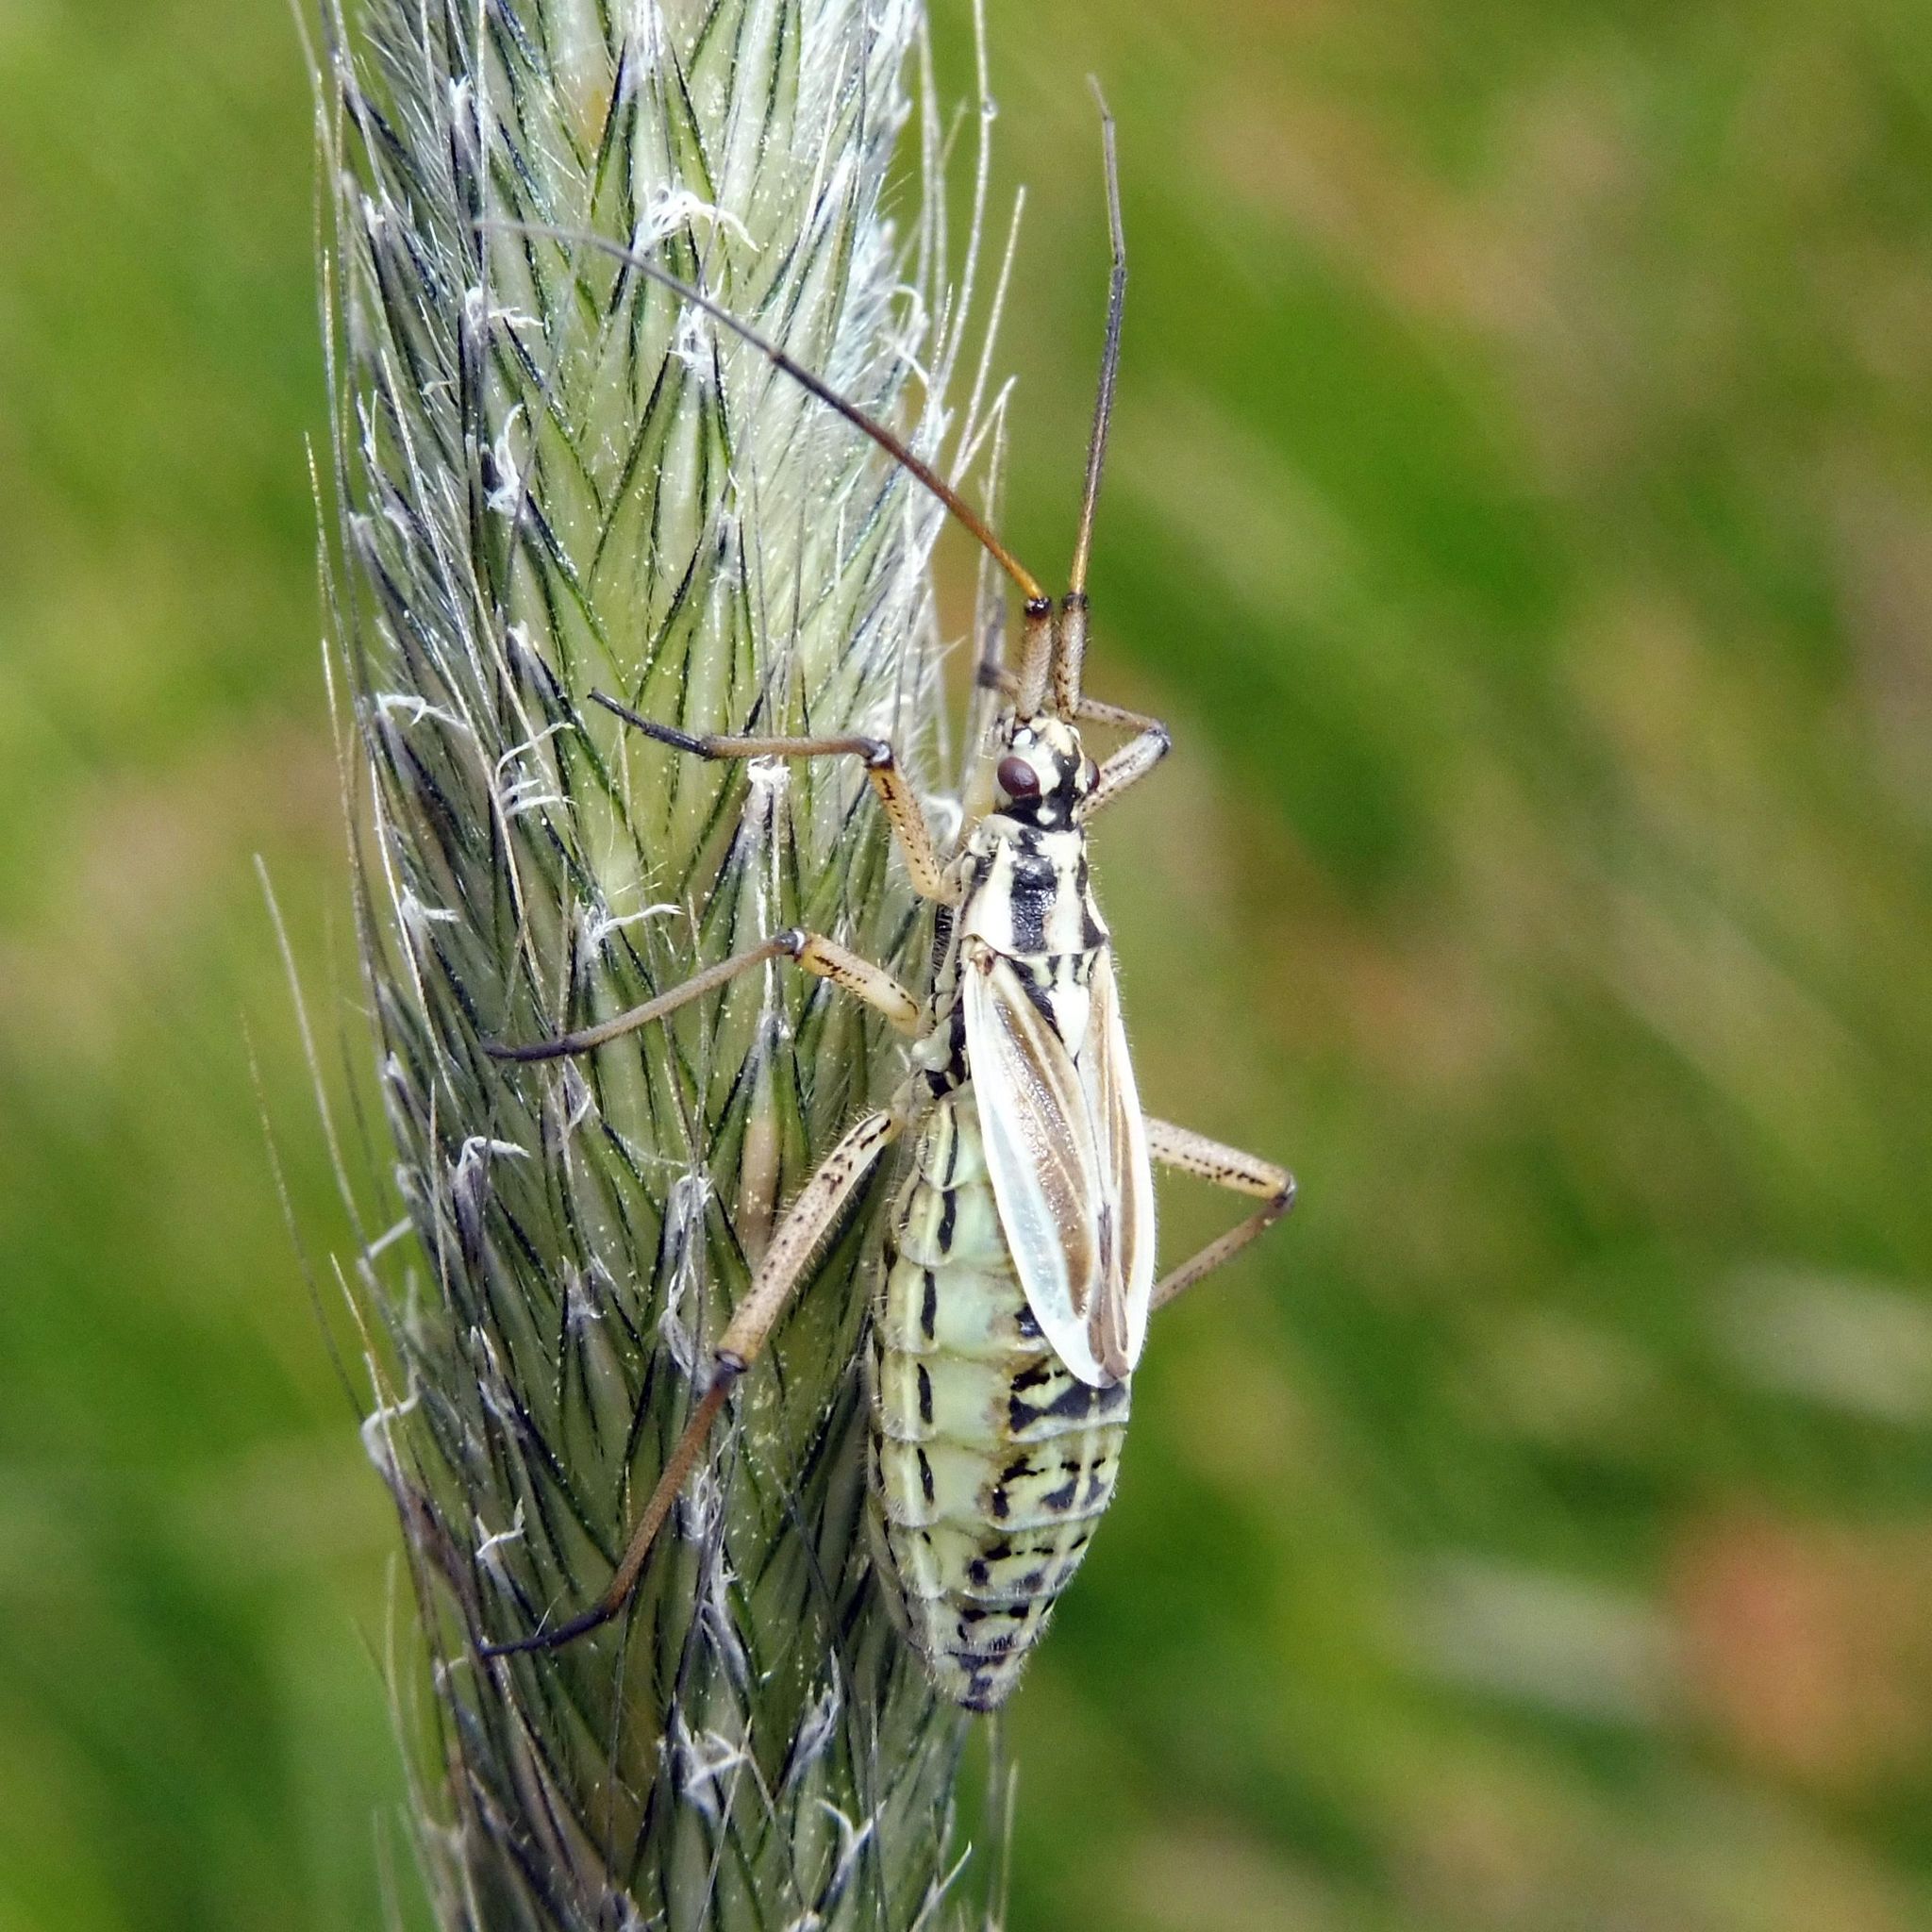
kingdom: Animalia
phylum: Arthropoda
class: Insecta
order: Hemiptera
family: Miridae
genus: Leptopterna
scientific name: Leptopterna dolabrata
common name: Meadow plant bug
